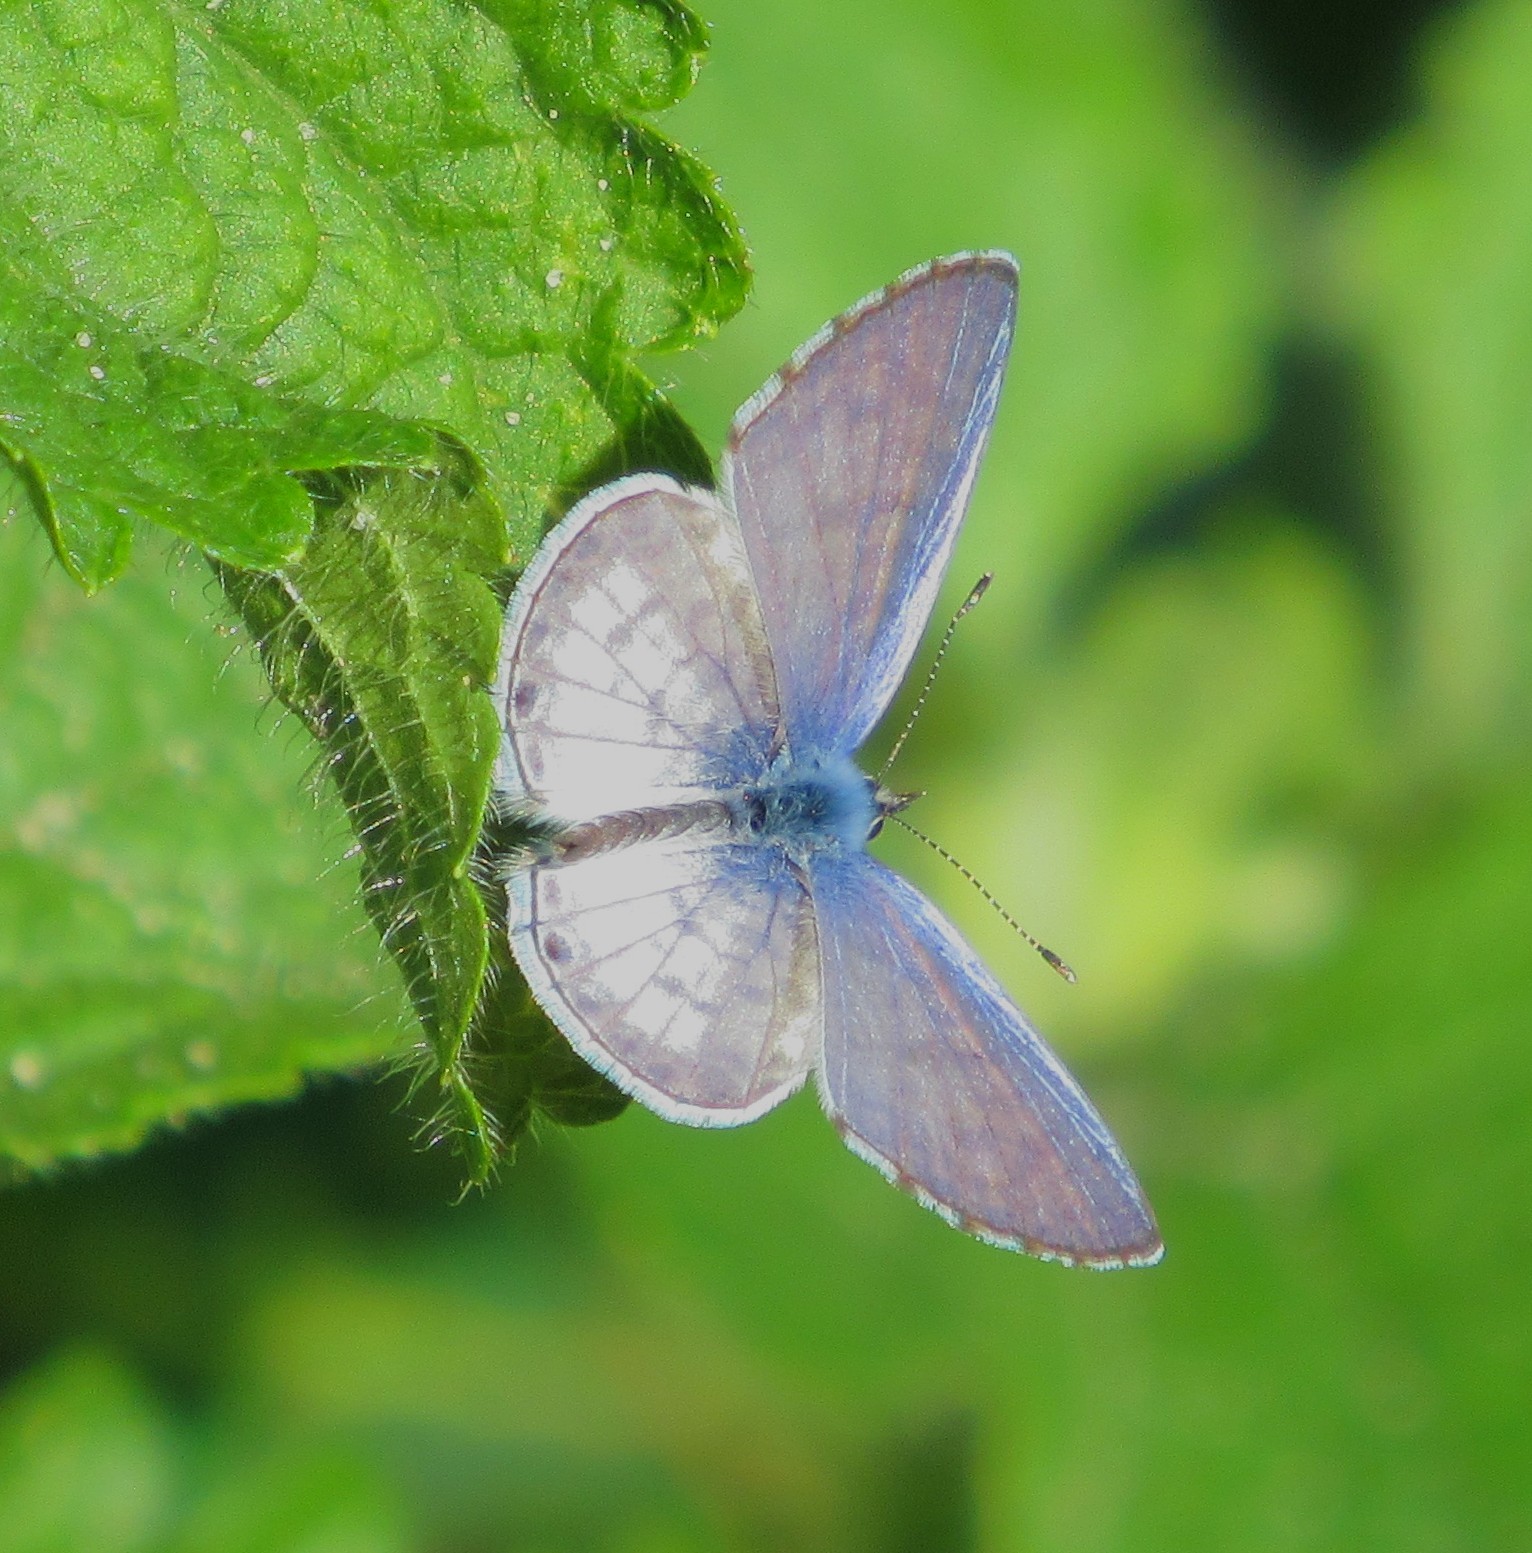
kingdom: Animalia
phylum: Arthropoda
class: Insecta
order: Lepidoptera
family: Lycaenidae
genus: Leptotes
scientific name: Leptotes cassius
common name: Cassius blue
